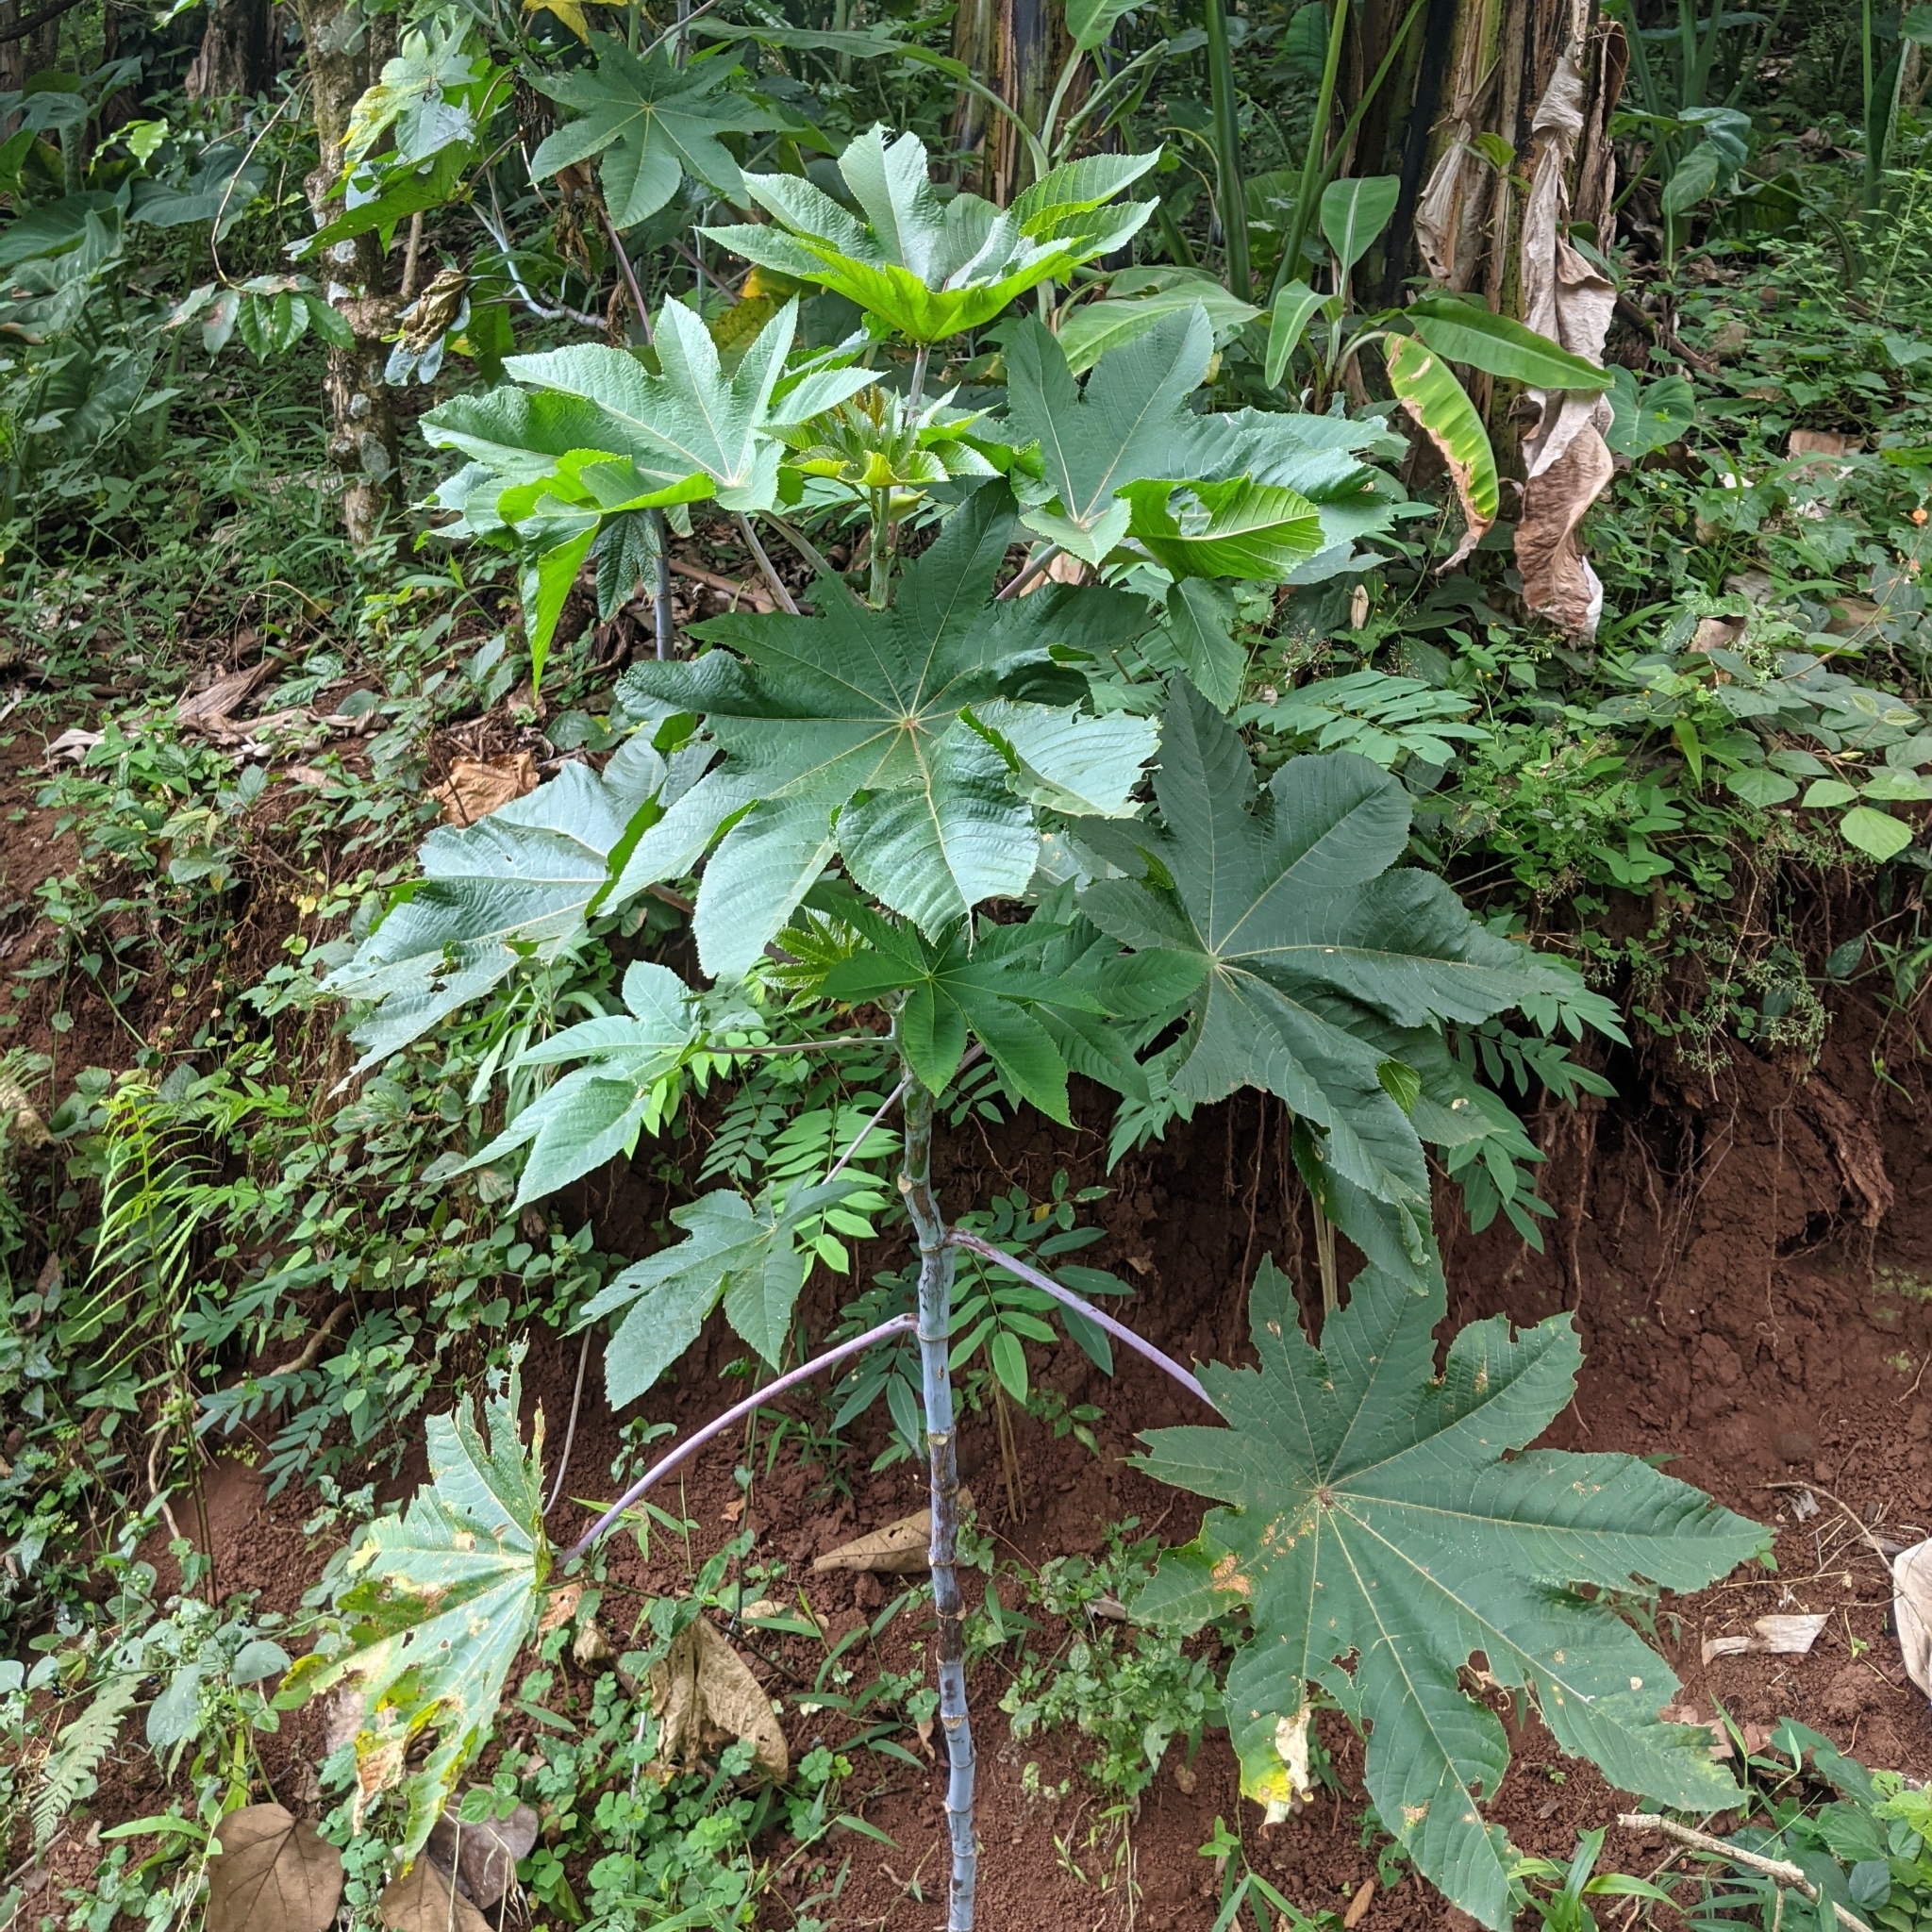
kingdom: Plantae
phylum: Tracheophyta
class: Magnoliopsida
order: Malpighiales
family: Euphorbiaceae
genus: Ricinus
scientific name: Ricinus communis
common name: Castor-oil-plant
